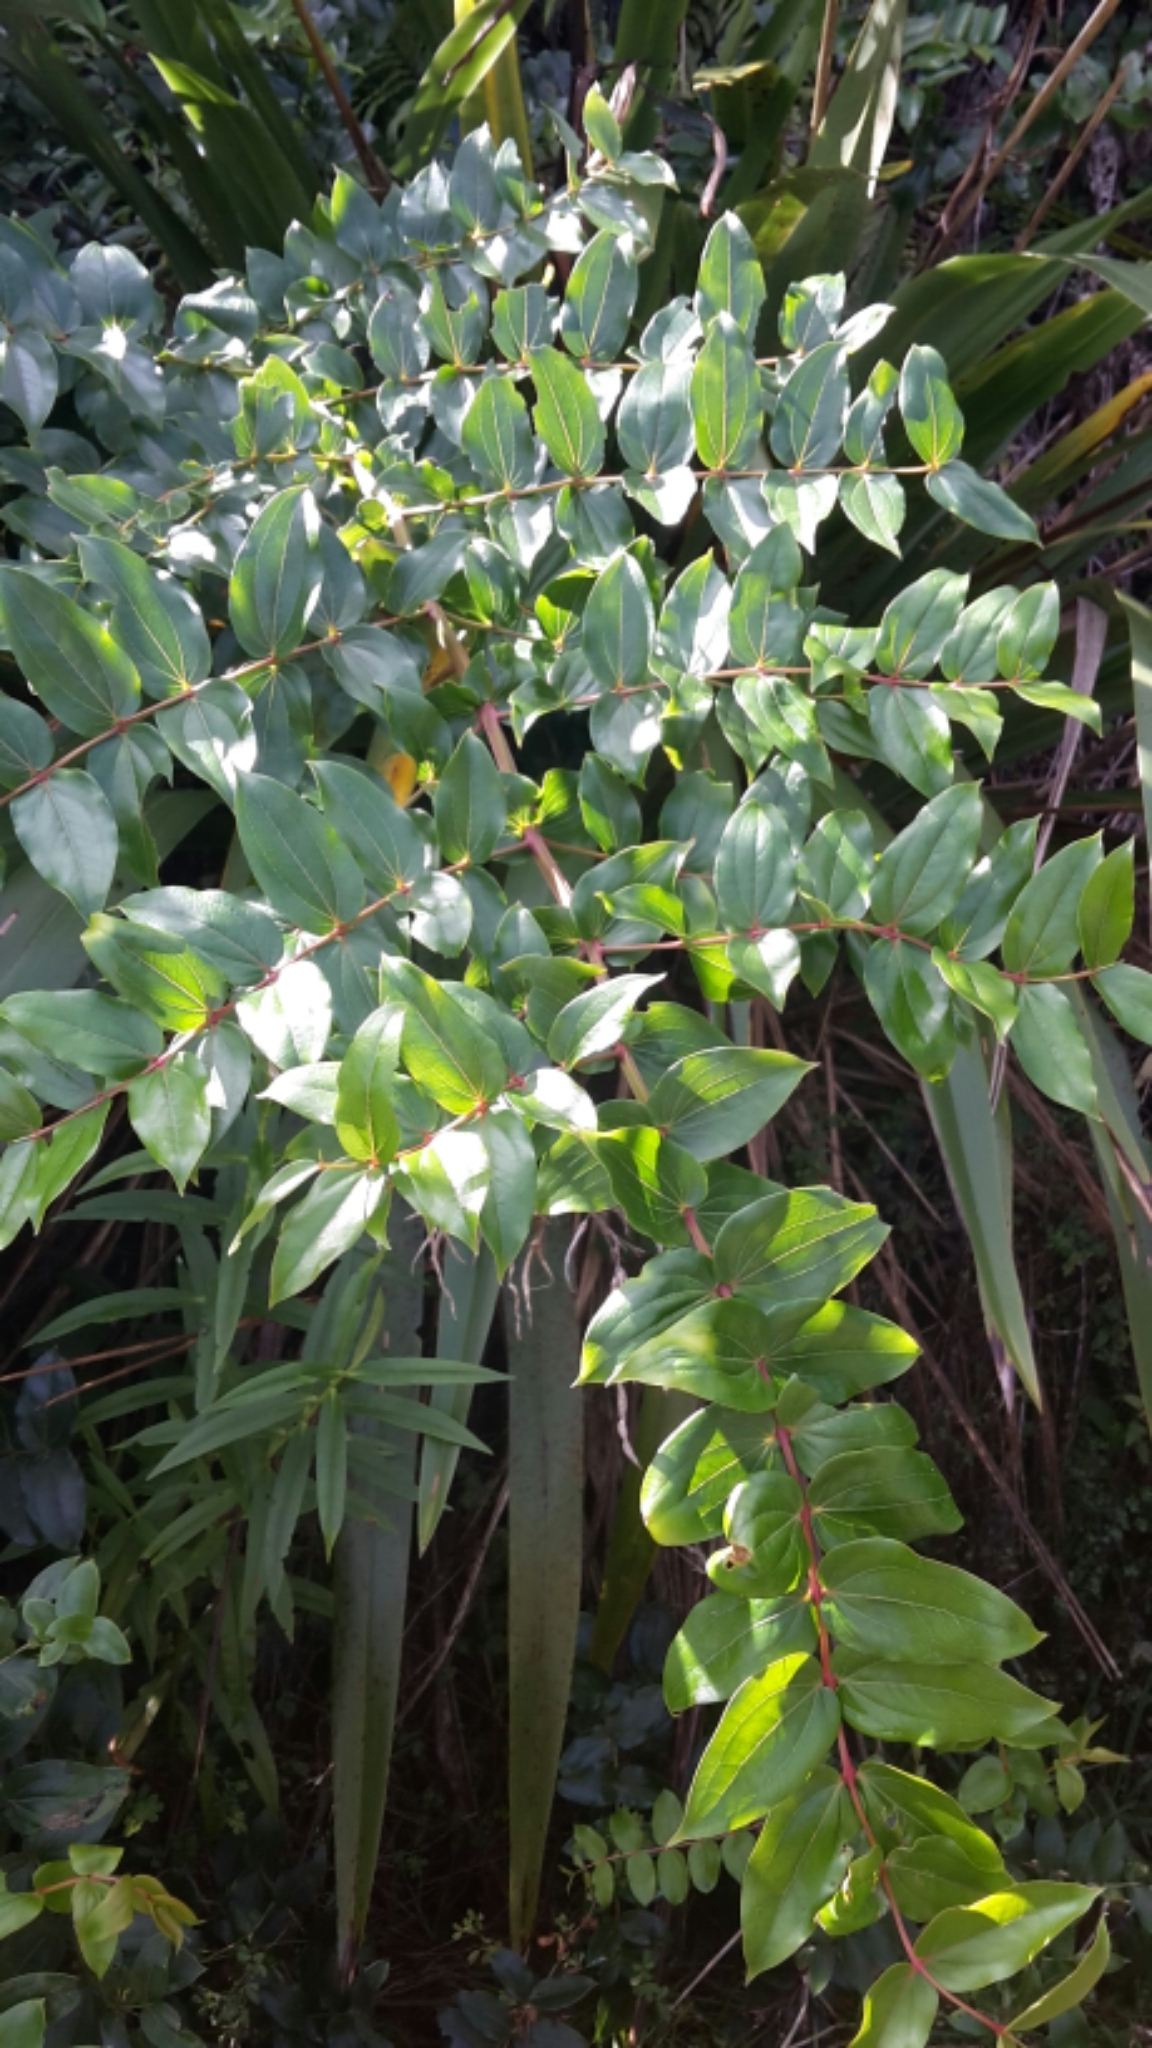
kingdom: Plantae
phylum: Tracheophyta
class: Magnoliopsida
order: Cucurbitales
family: Coriariaceae
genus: Coriaria
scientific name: Coriaria arborea
